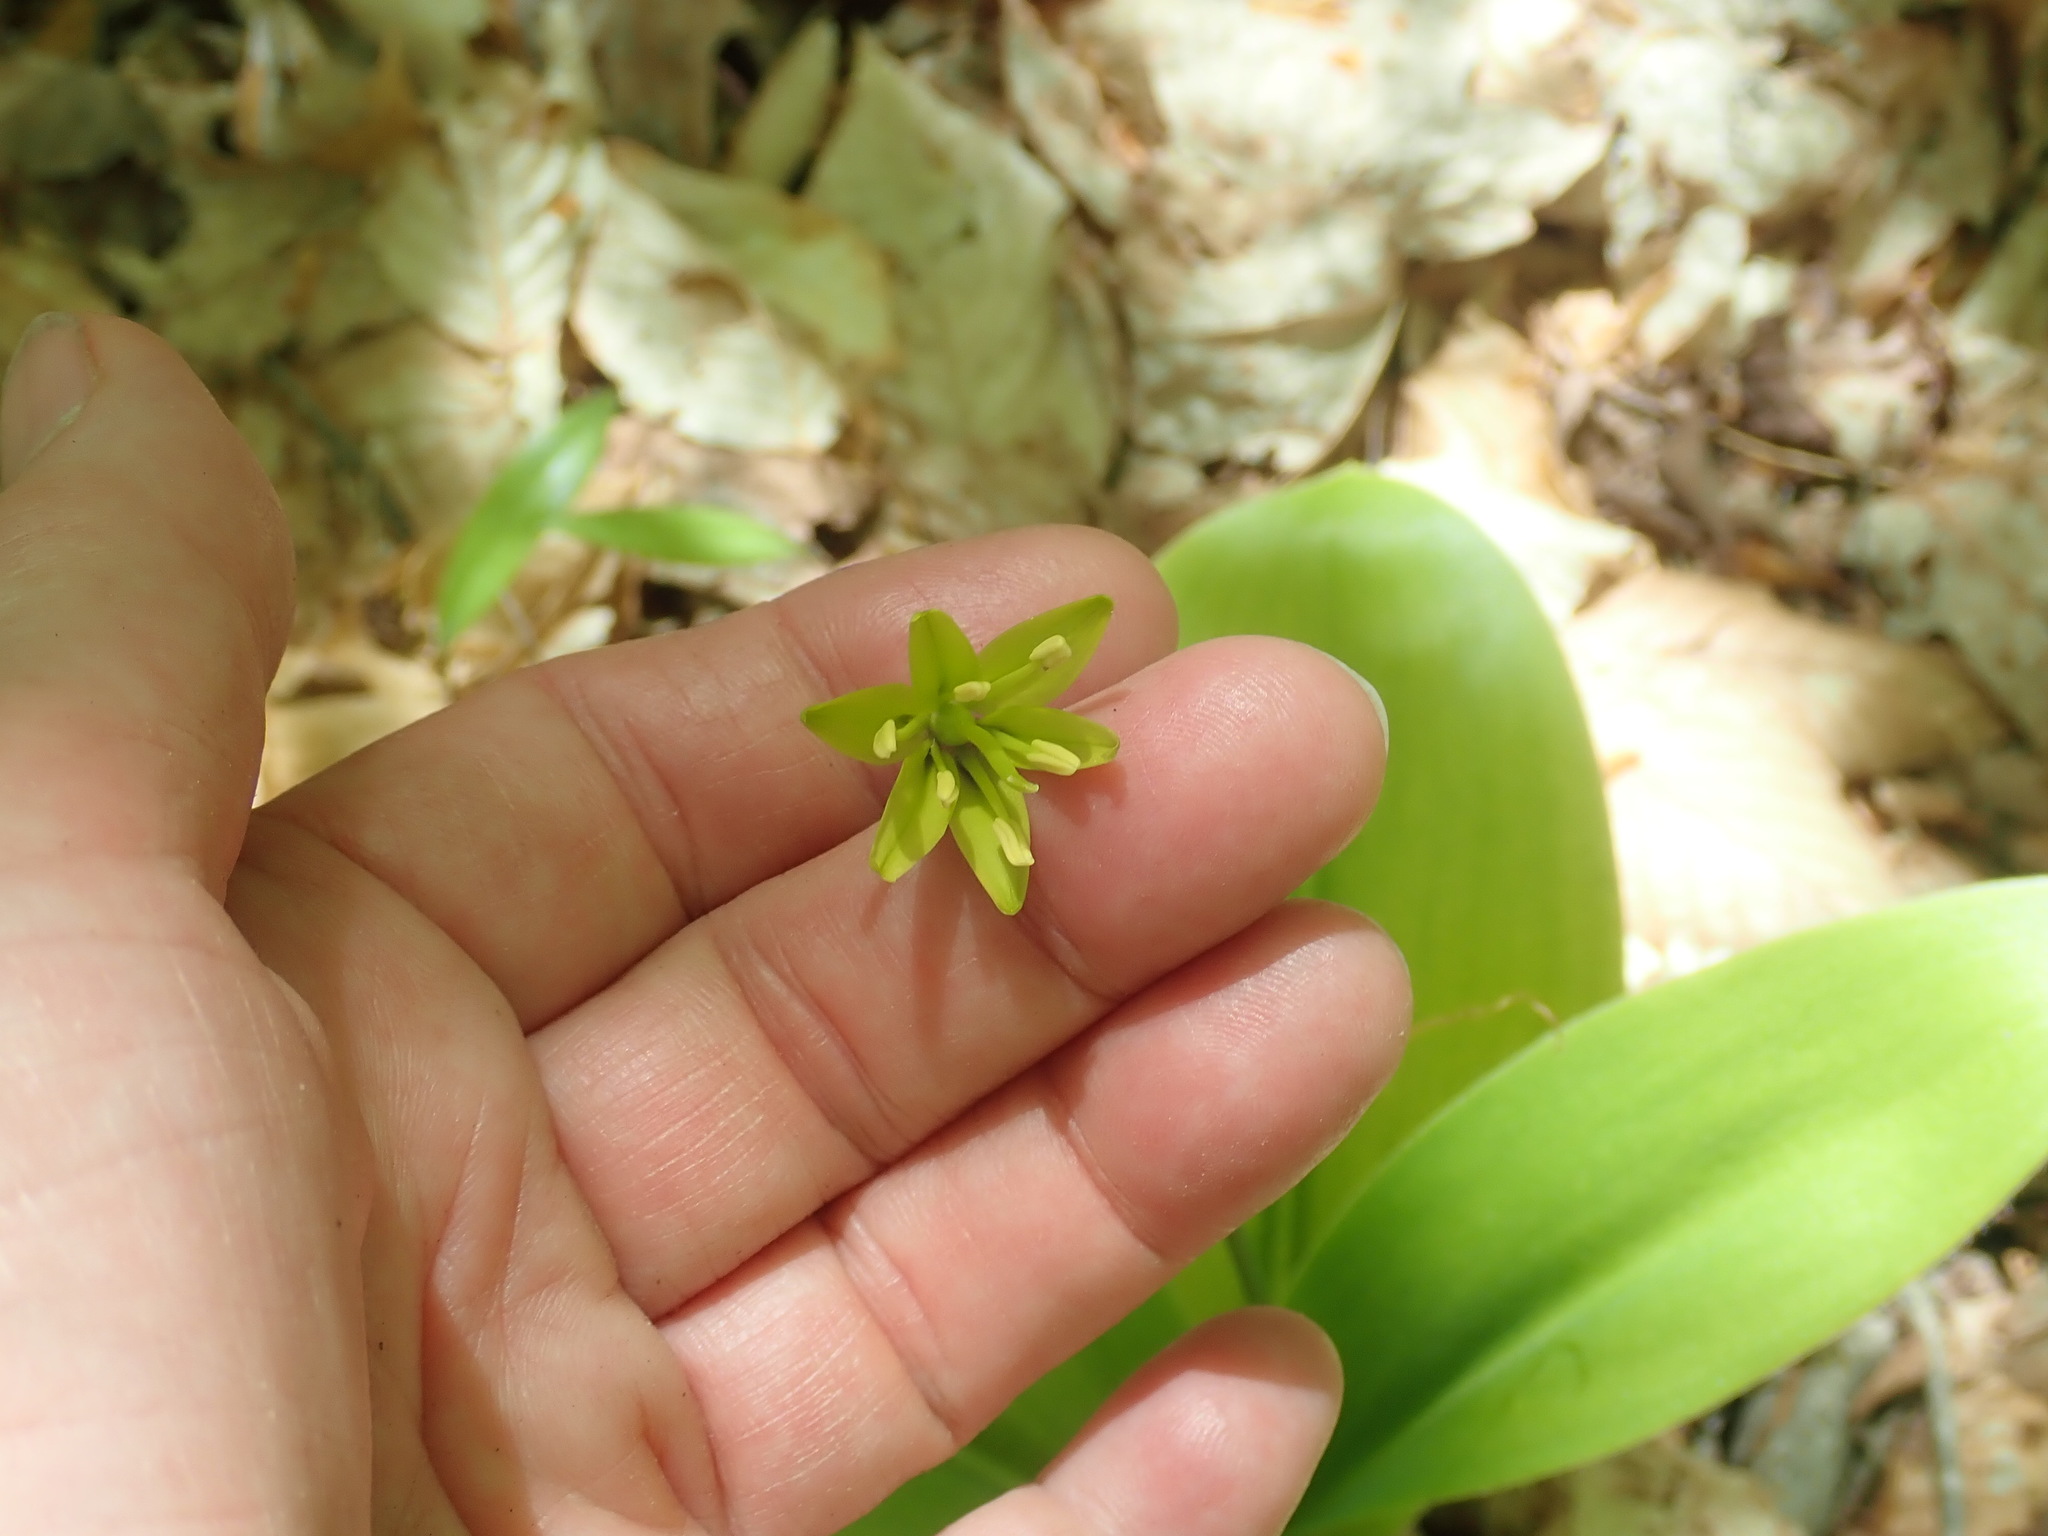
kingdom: Plantae
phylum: Tracheophyta
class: Liliopsida
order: Liliales
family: Liliaceae
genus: Clintonia
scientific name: Clintonia borealis
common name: Yellow clintonia
